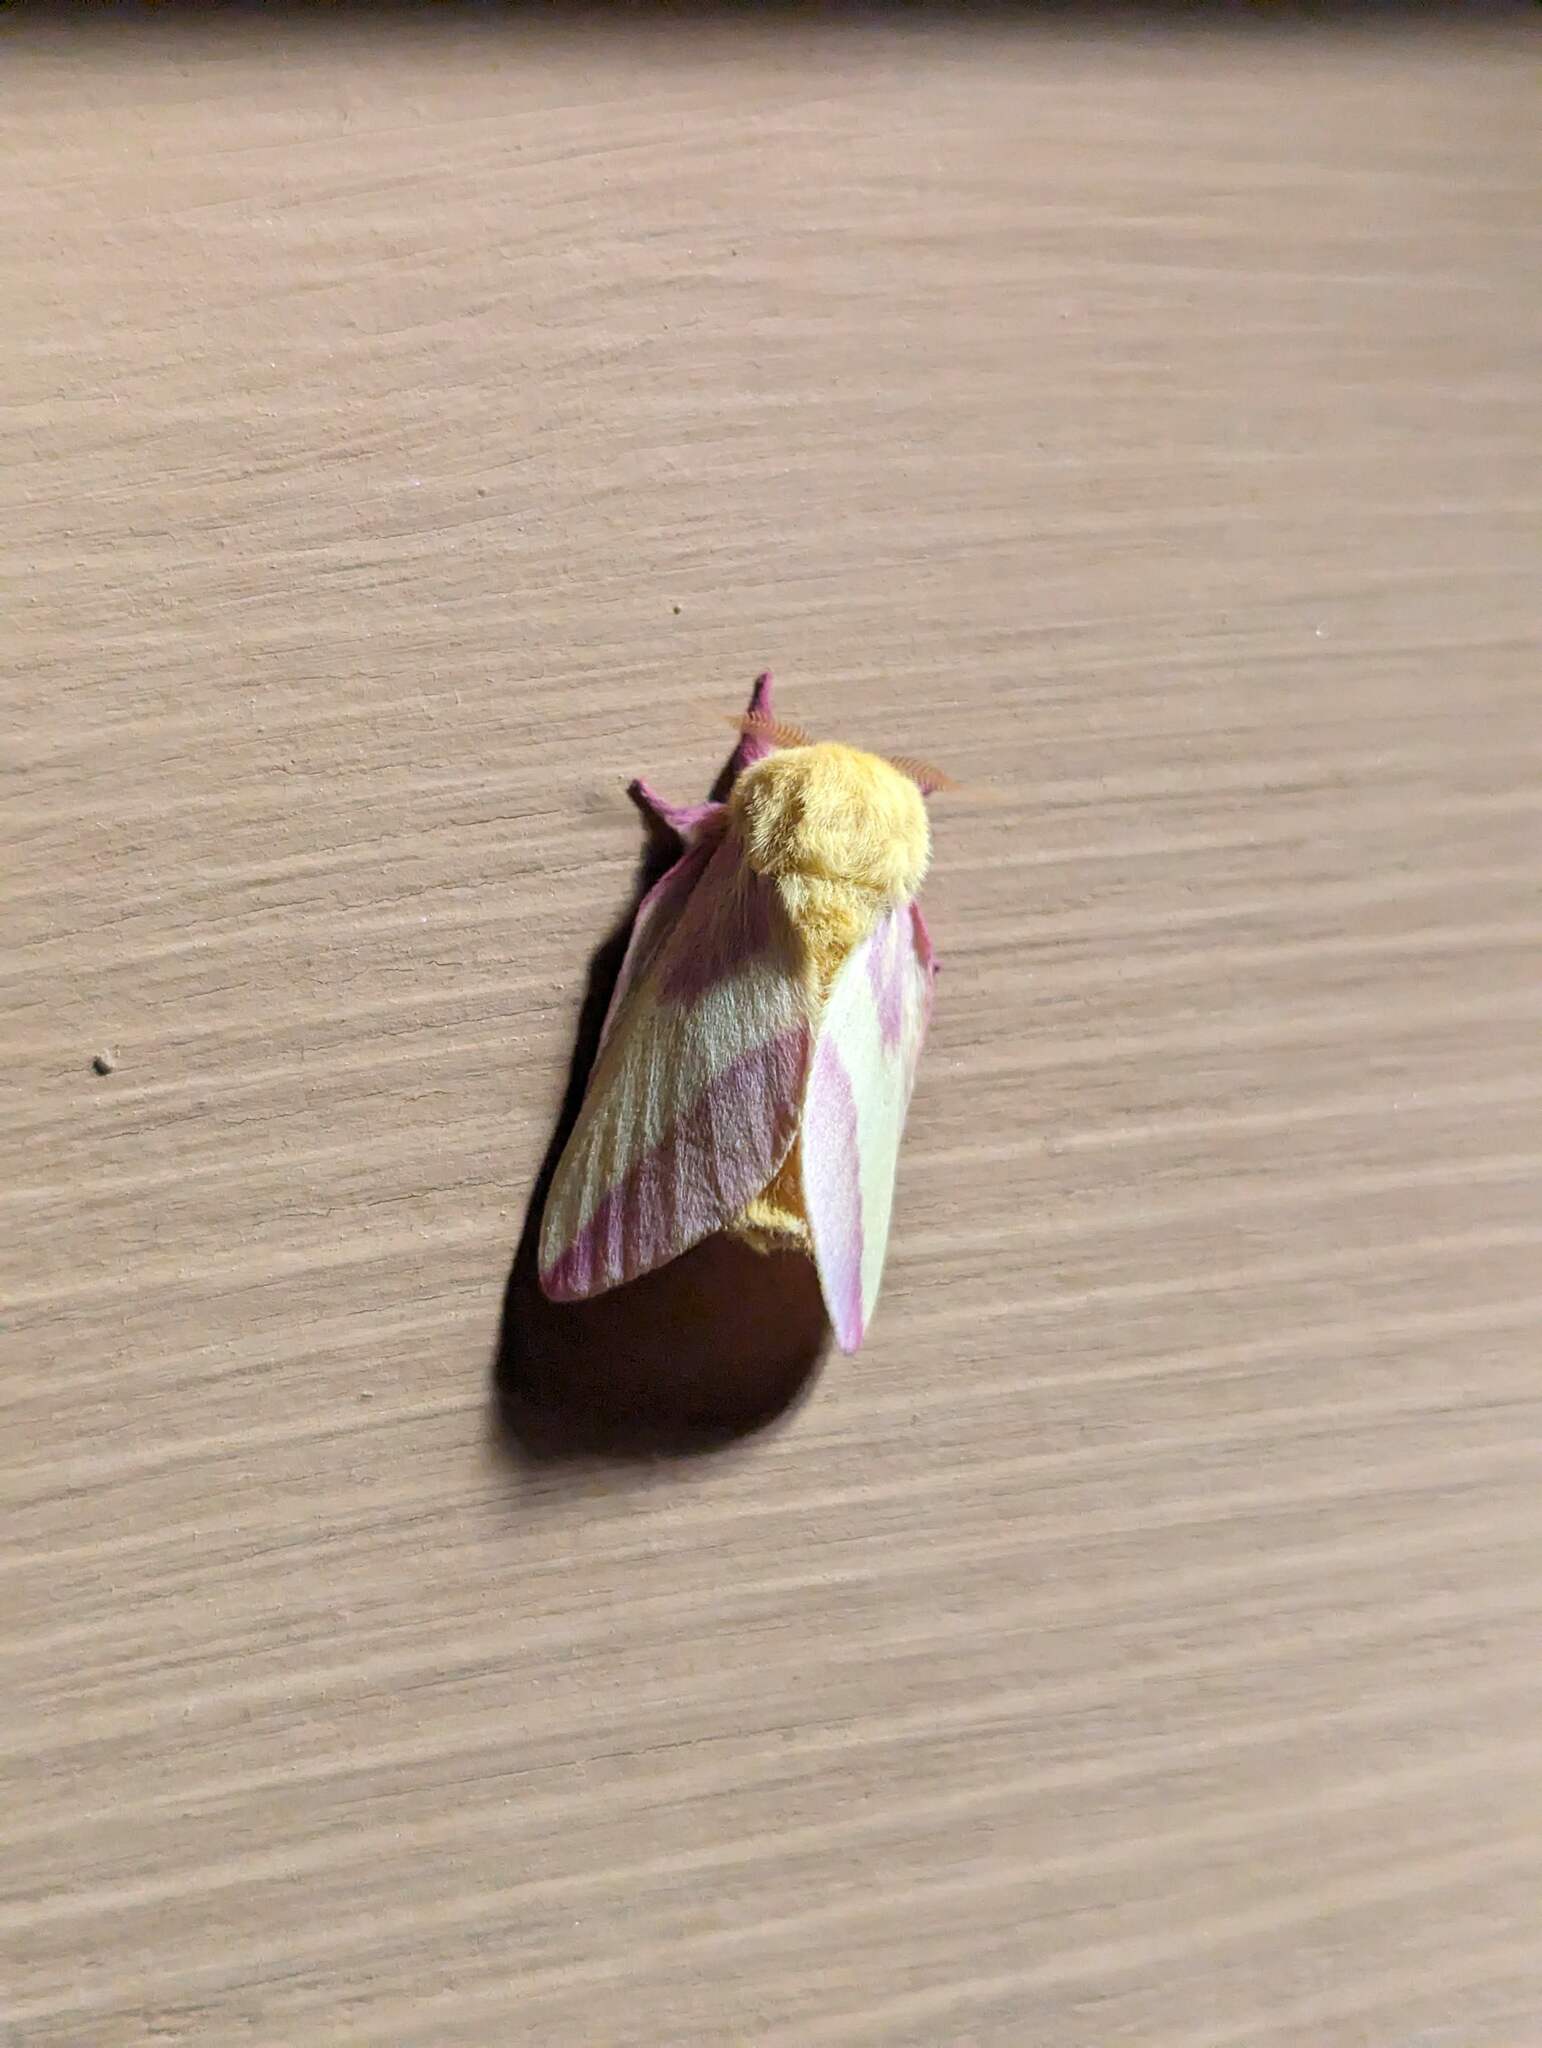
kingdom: Animalia
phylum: Arthropoda
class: Insecta
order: Lepidoptera
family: Saturniidae
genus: Dryocampa
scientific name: Dryocampa rubicunda
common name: Rosy maple moth
